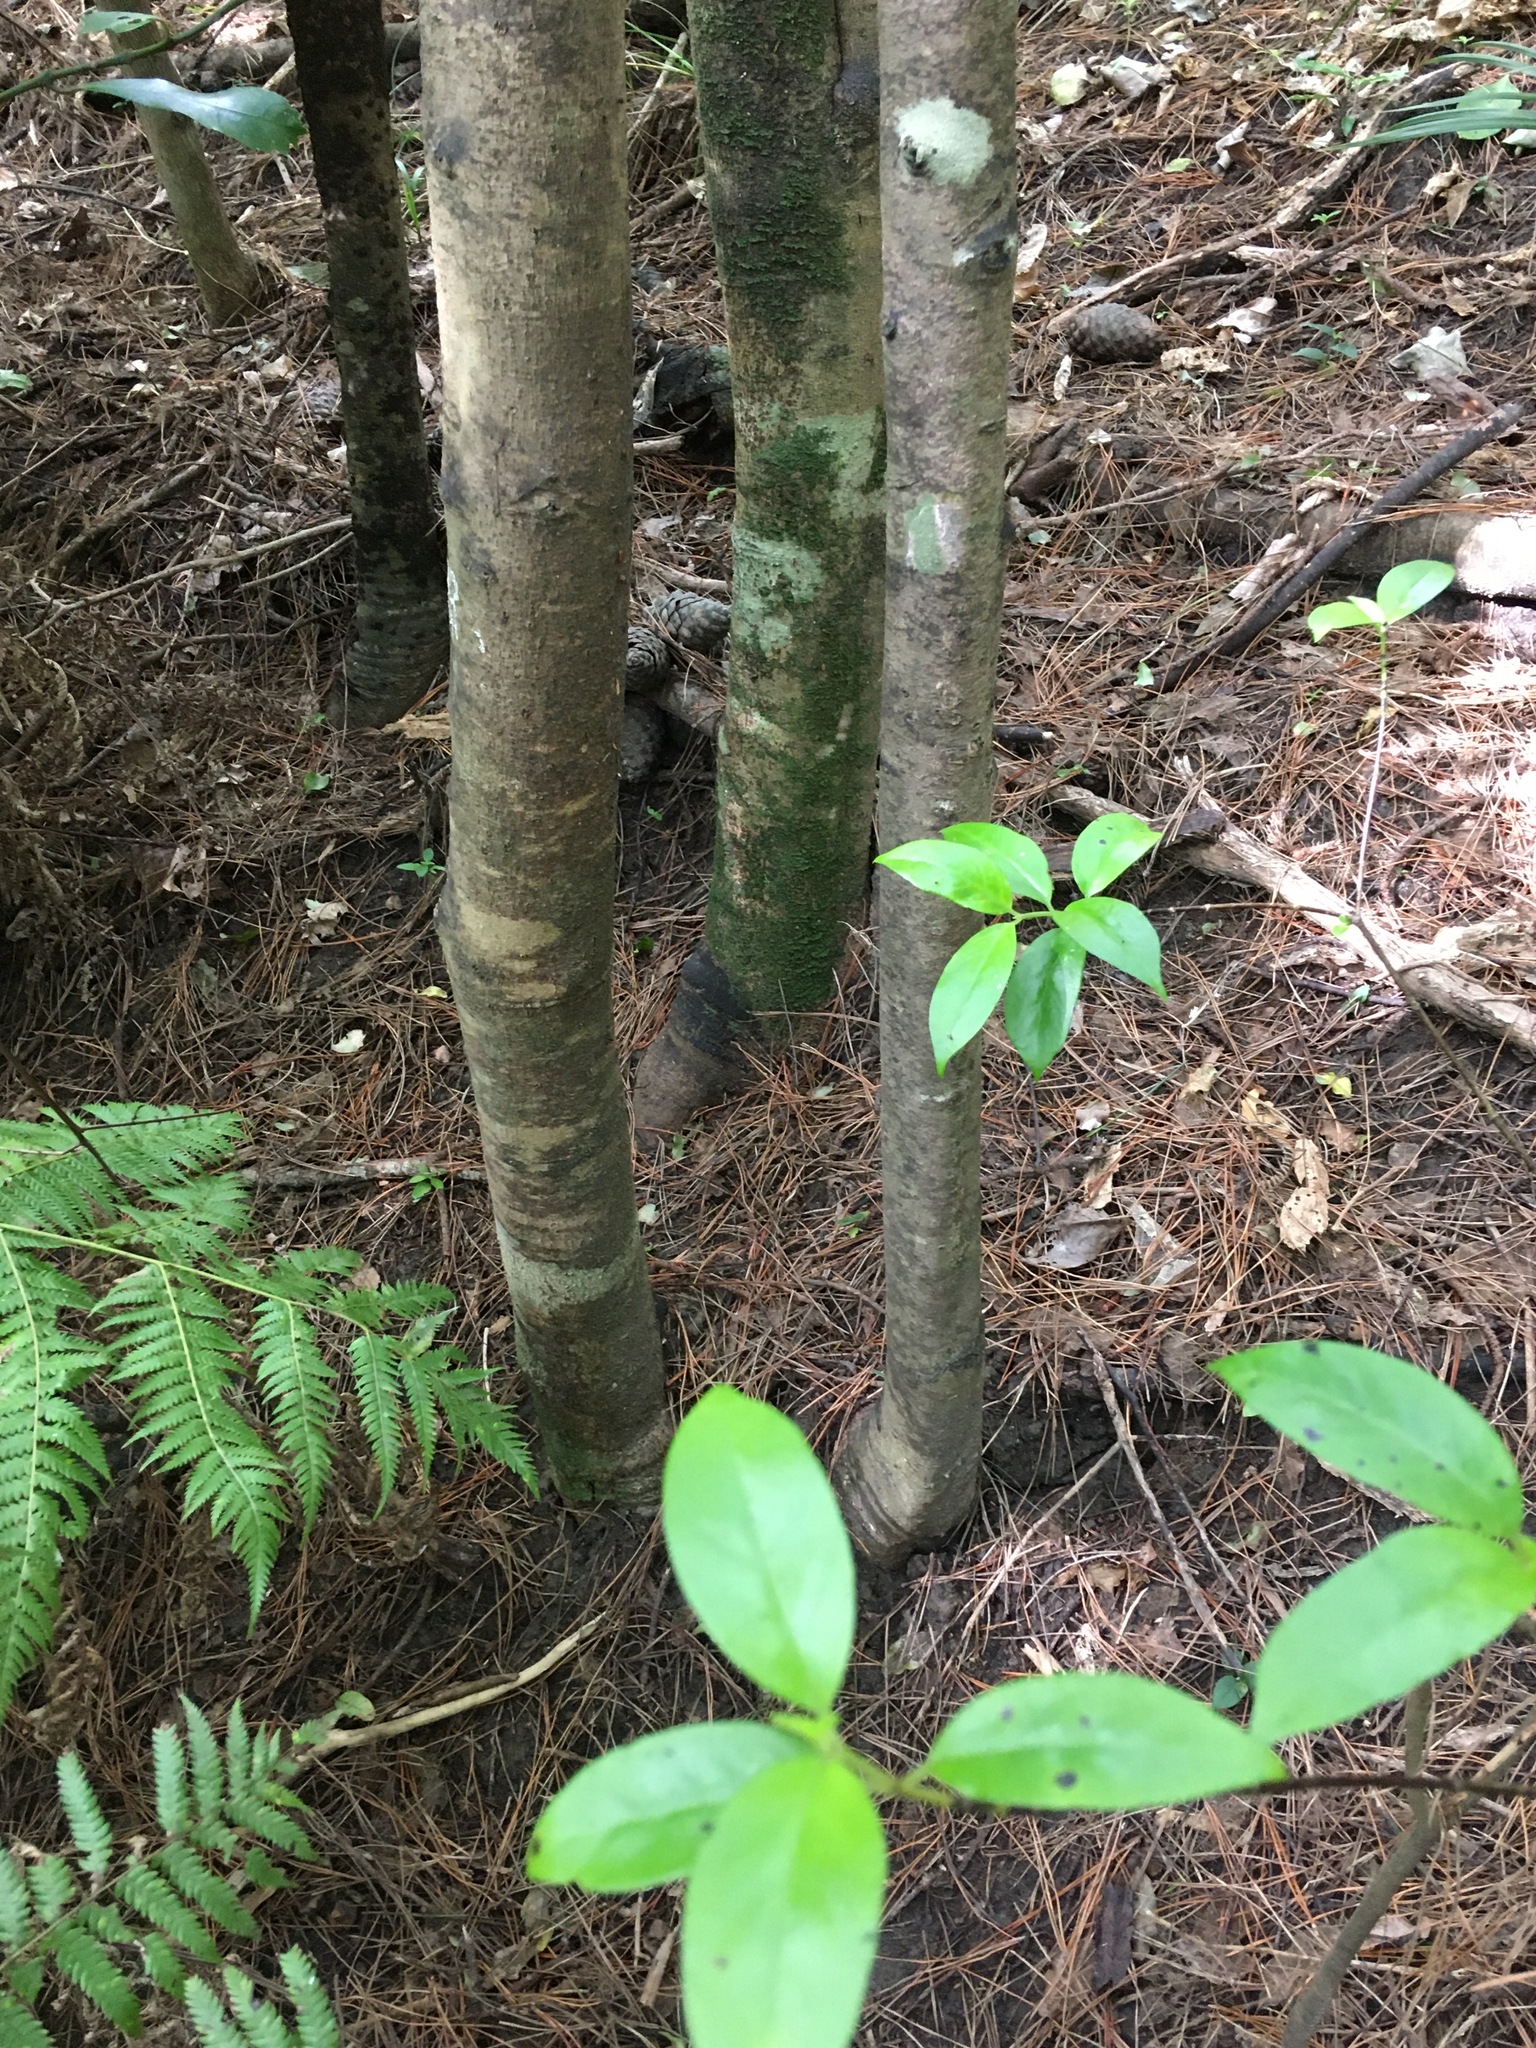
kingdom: Plantae
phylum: Tracheophyta
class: Magnoliopsida
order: Gentianales
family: Loganiaceae
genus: Geniostoma
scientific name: Geniostoma ligustrifolium
